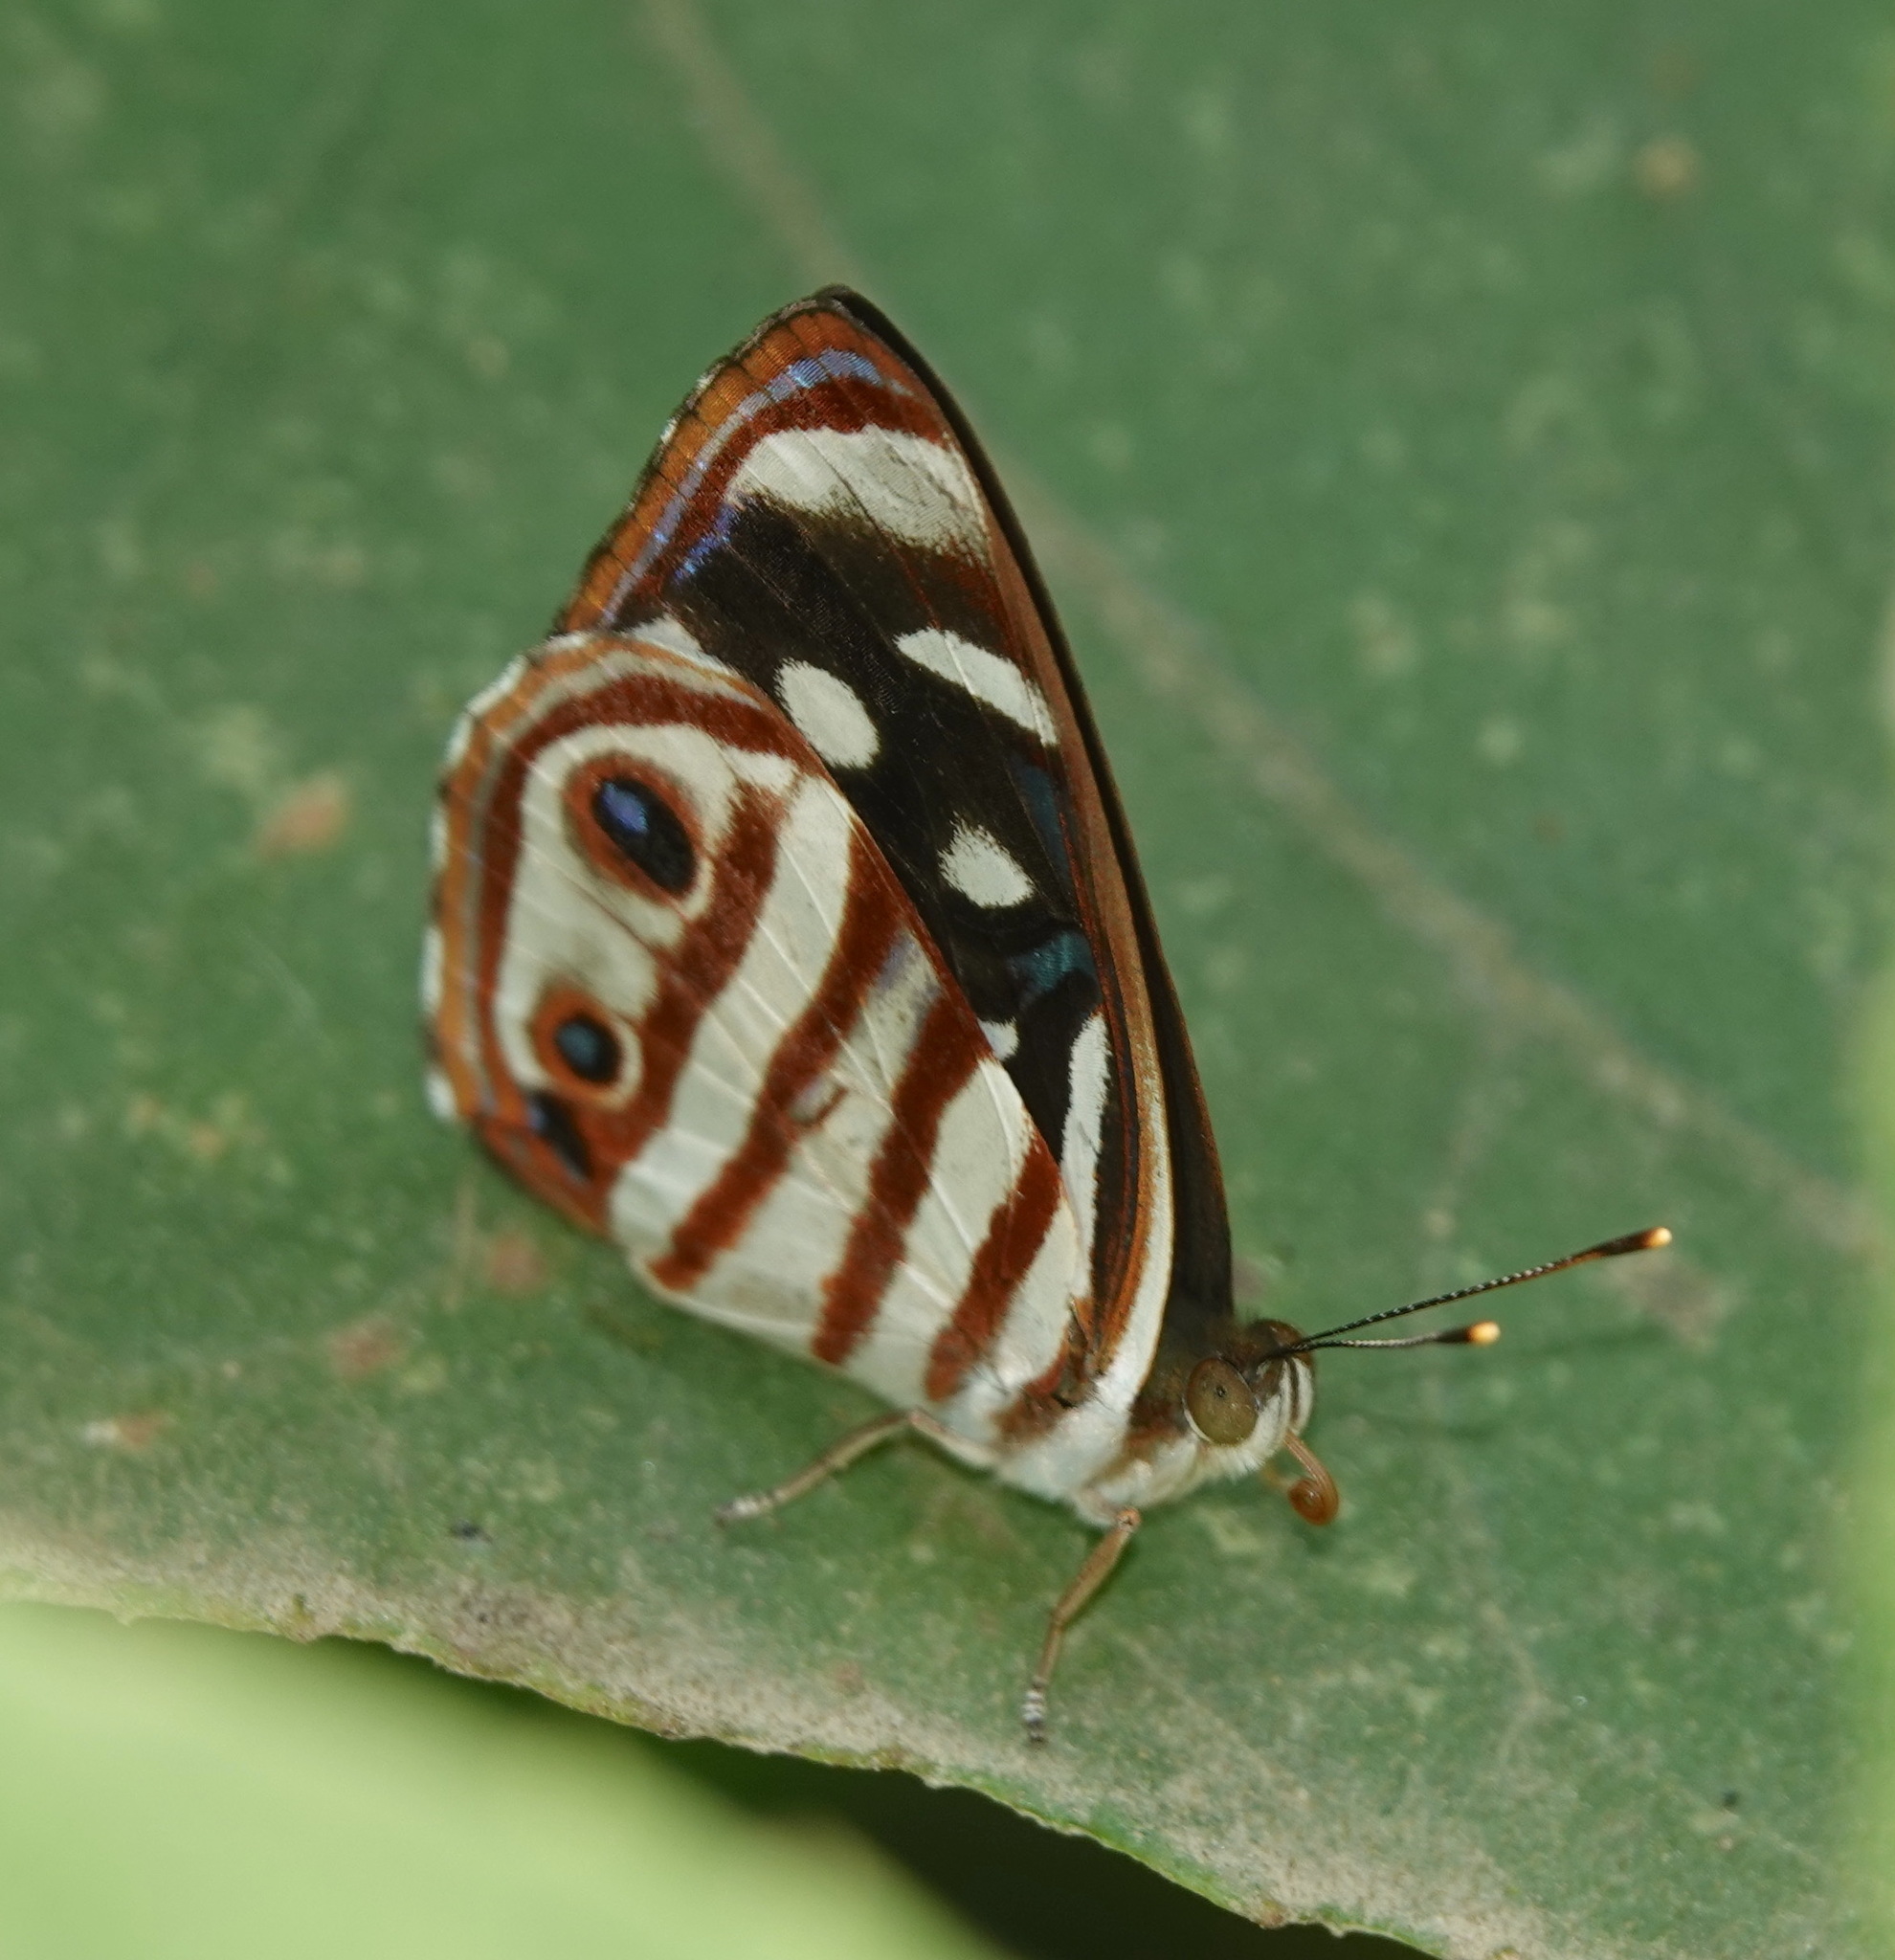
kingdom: Animalia
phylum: Arthropoda
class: Insecta
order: Lepidoptera
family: Nymphalidae
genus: Dynamine
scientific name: Dynamine gisella
